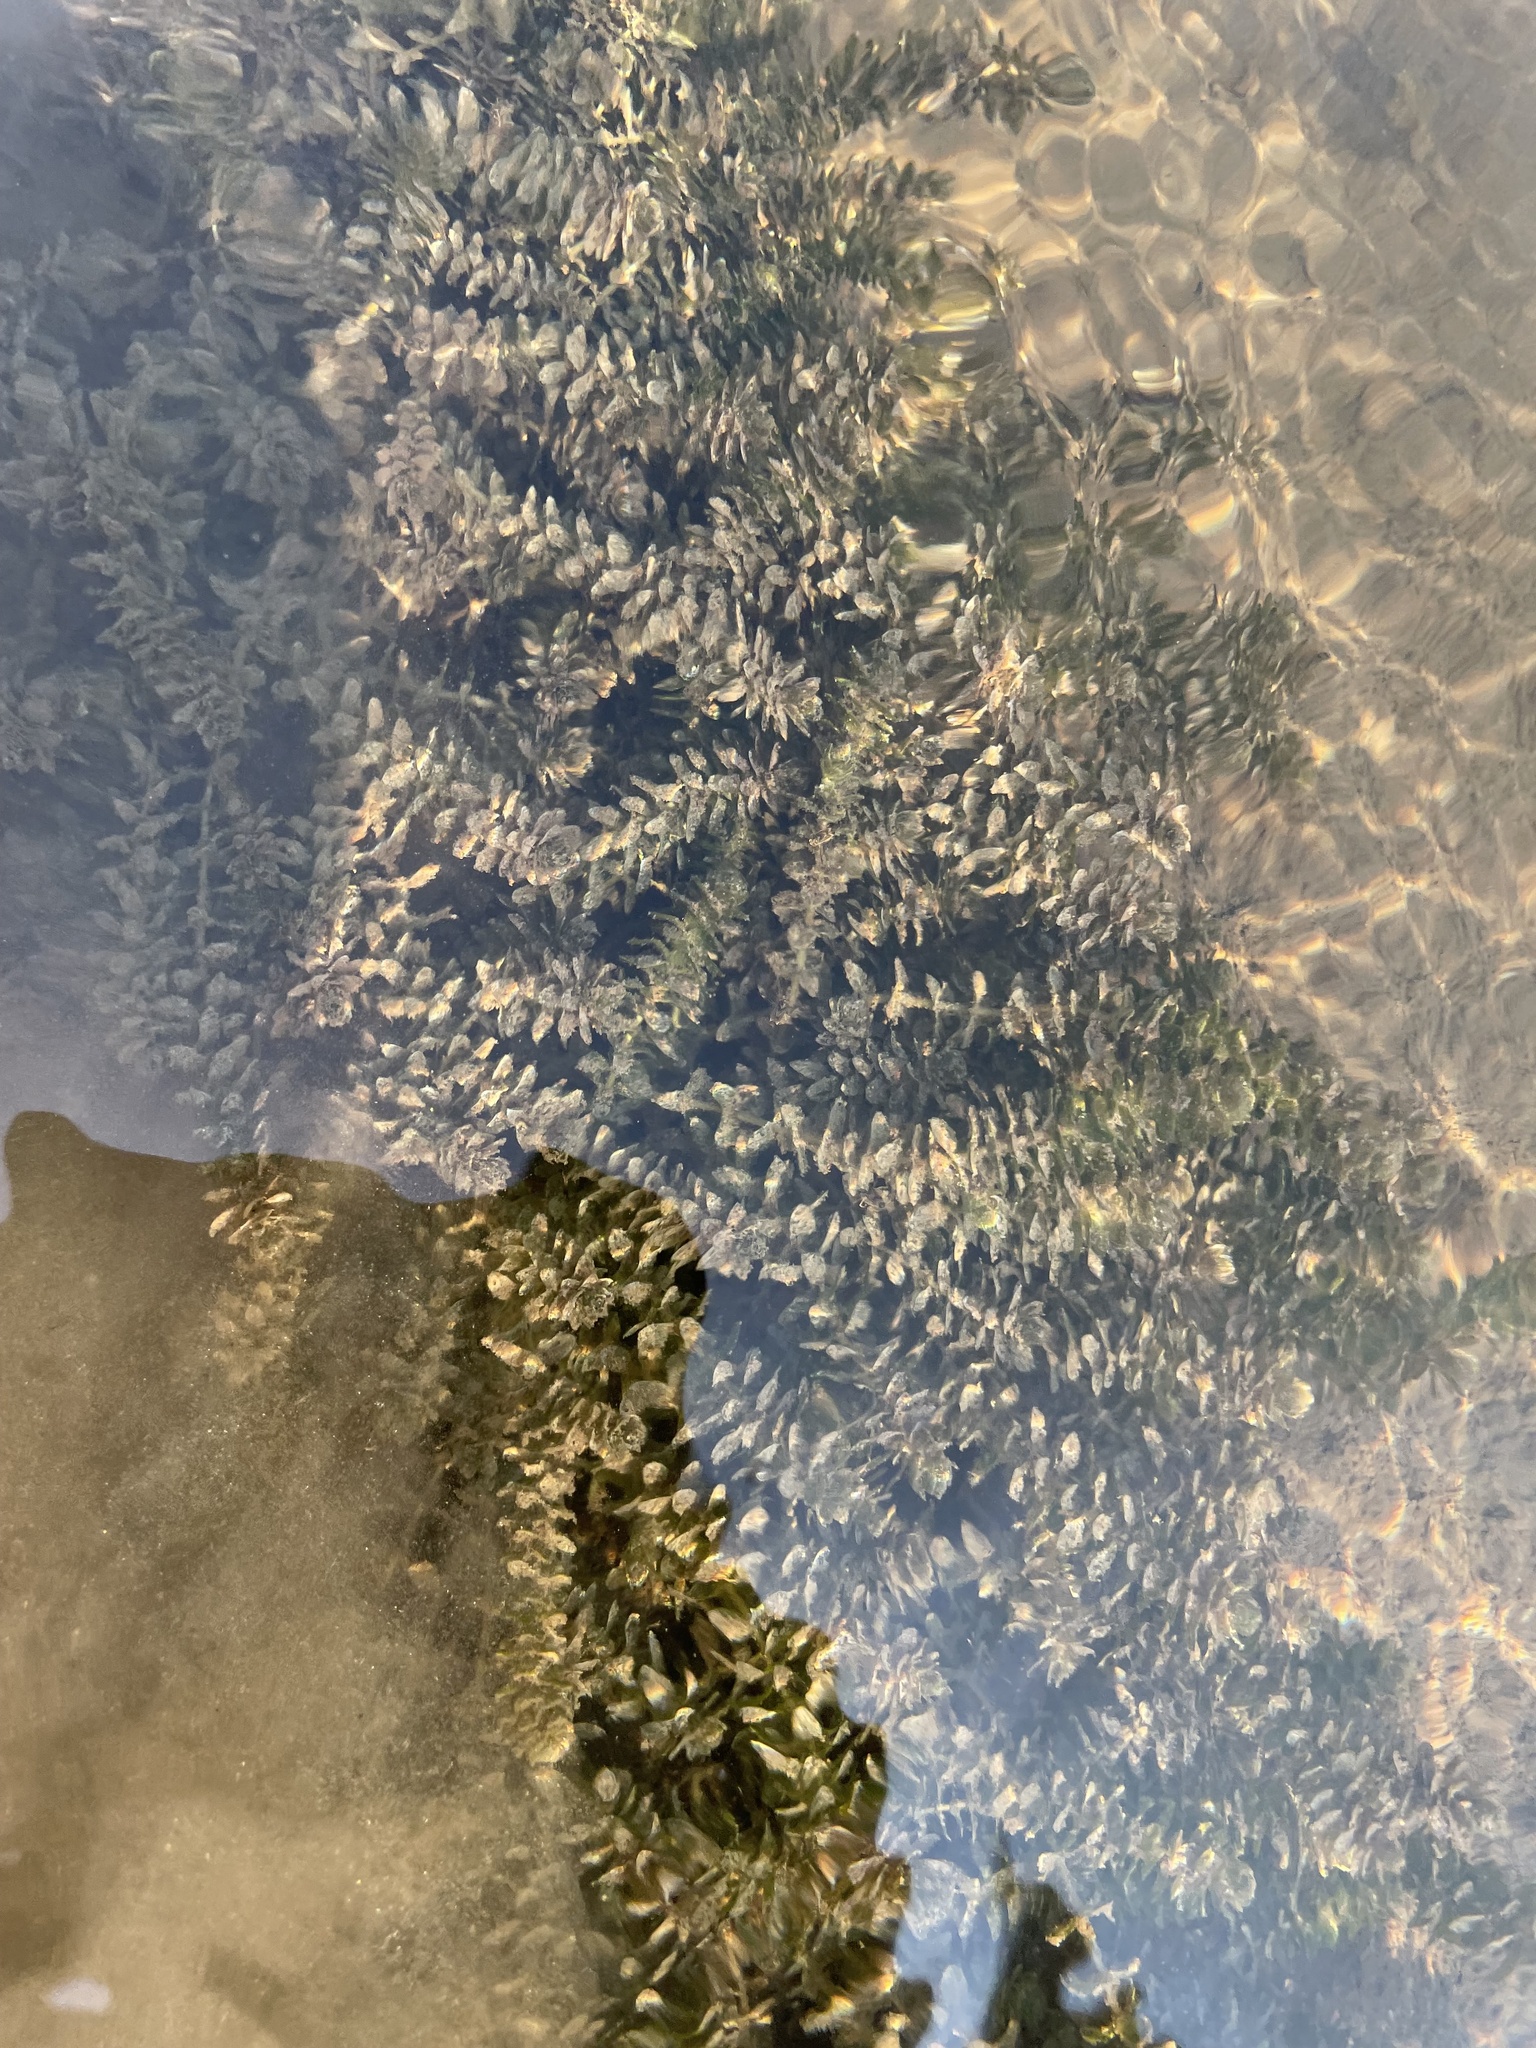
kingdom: Plantae
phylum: Tracheophyta
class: Liliopsida
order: Alismatales
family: Hydrocharitaceae
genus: Elodea
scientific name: Elodea canadensis
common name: Canadian waterweed
